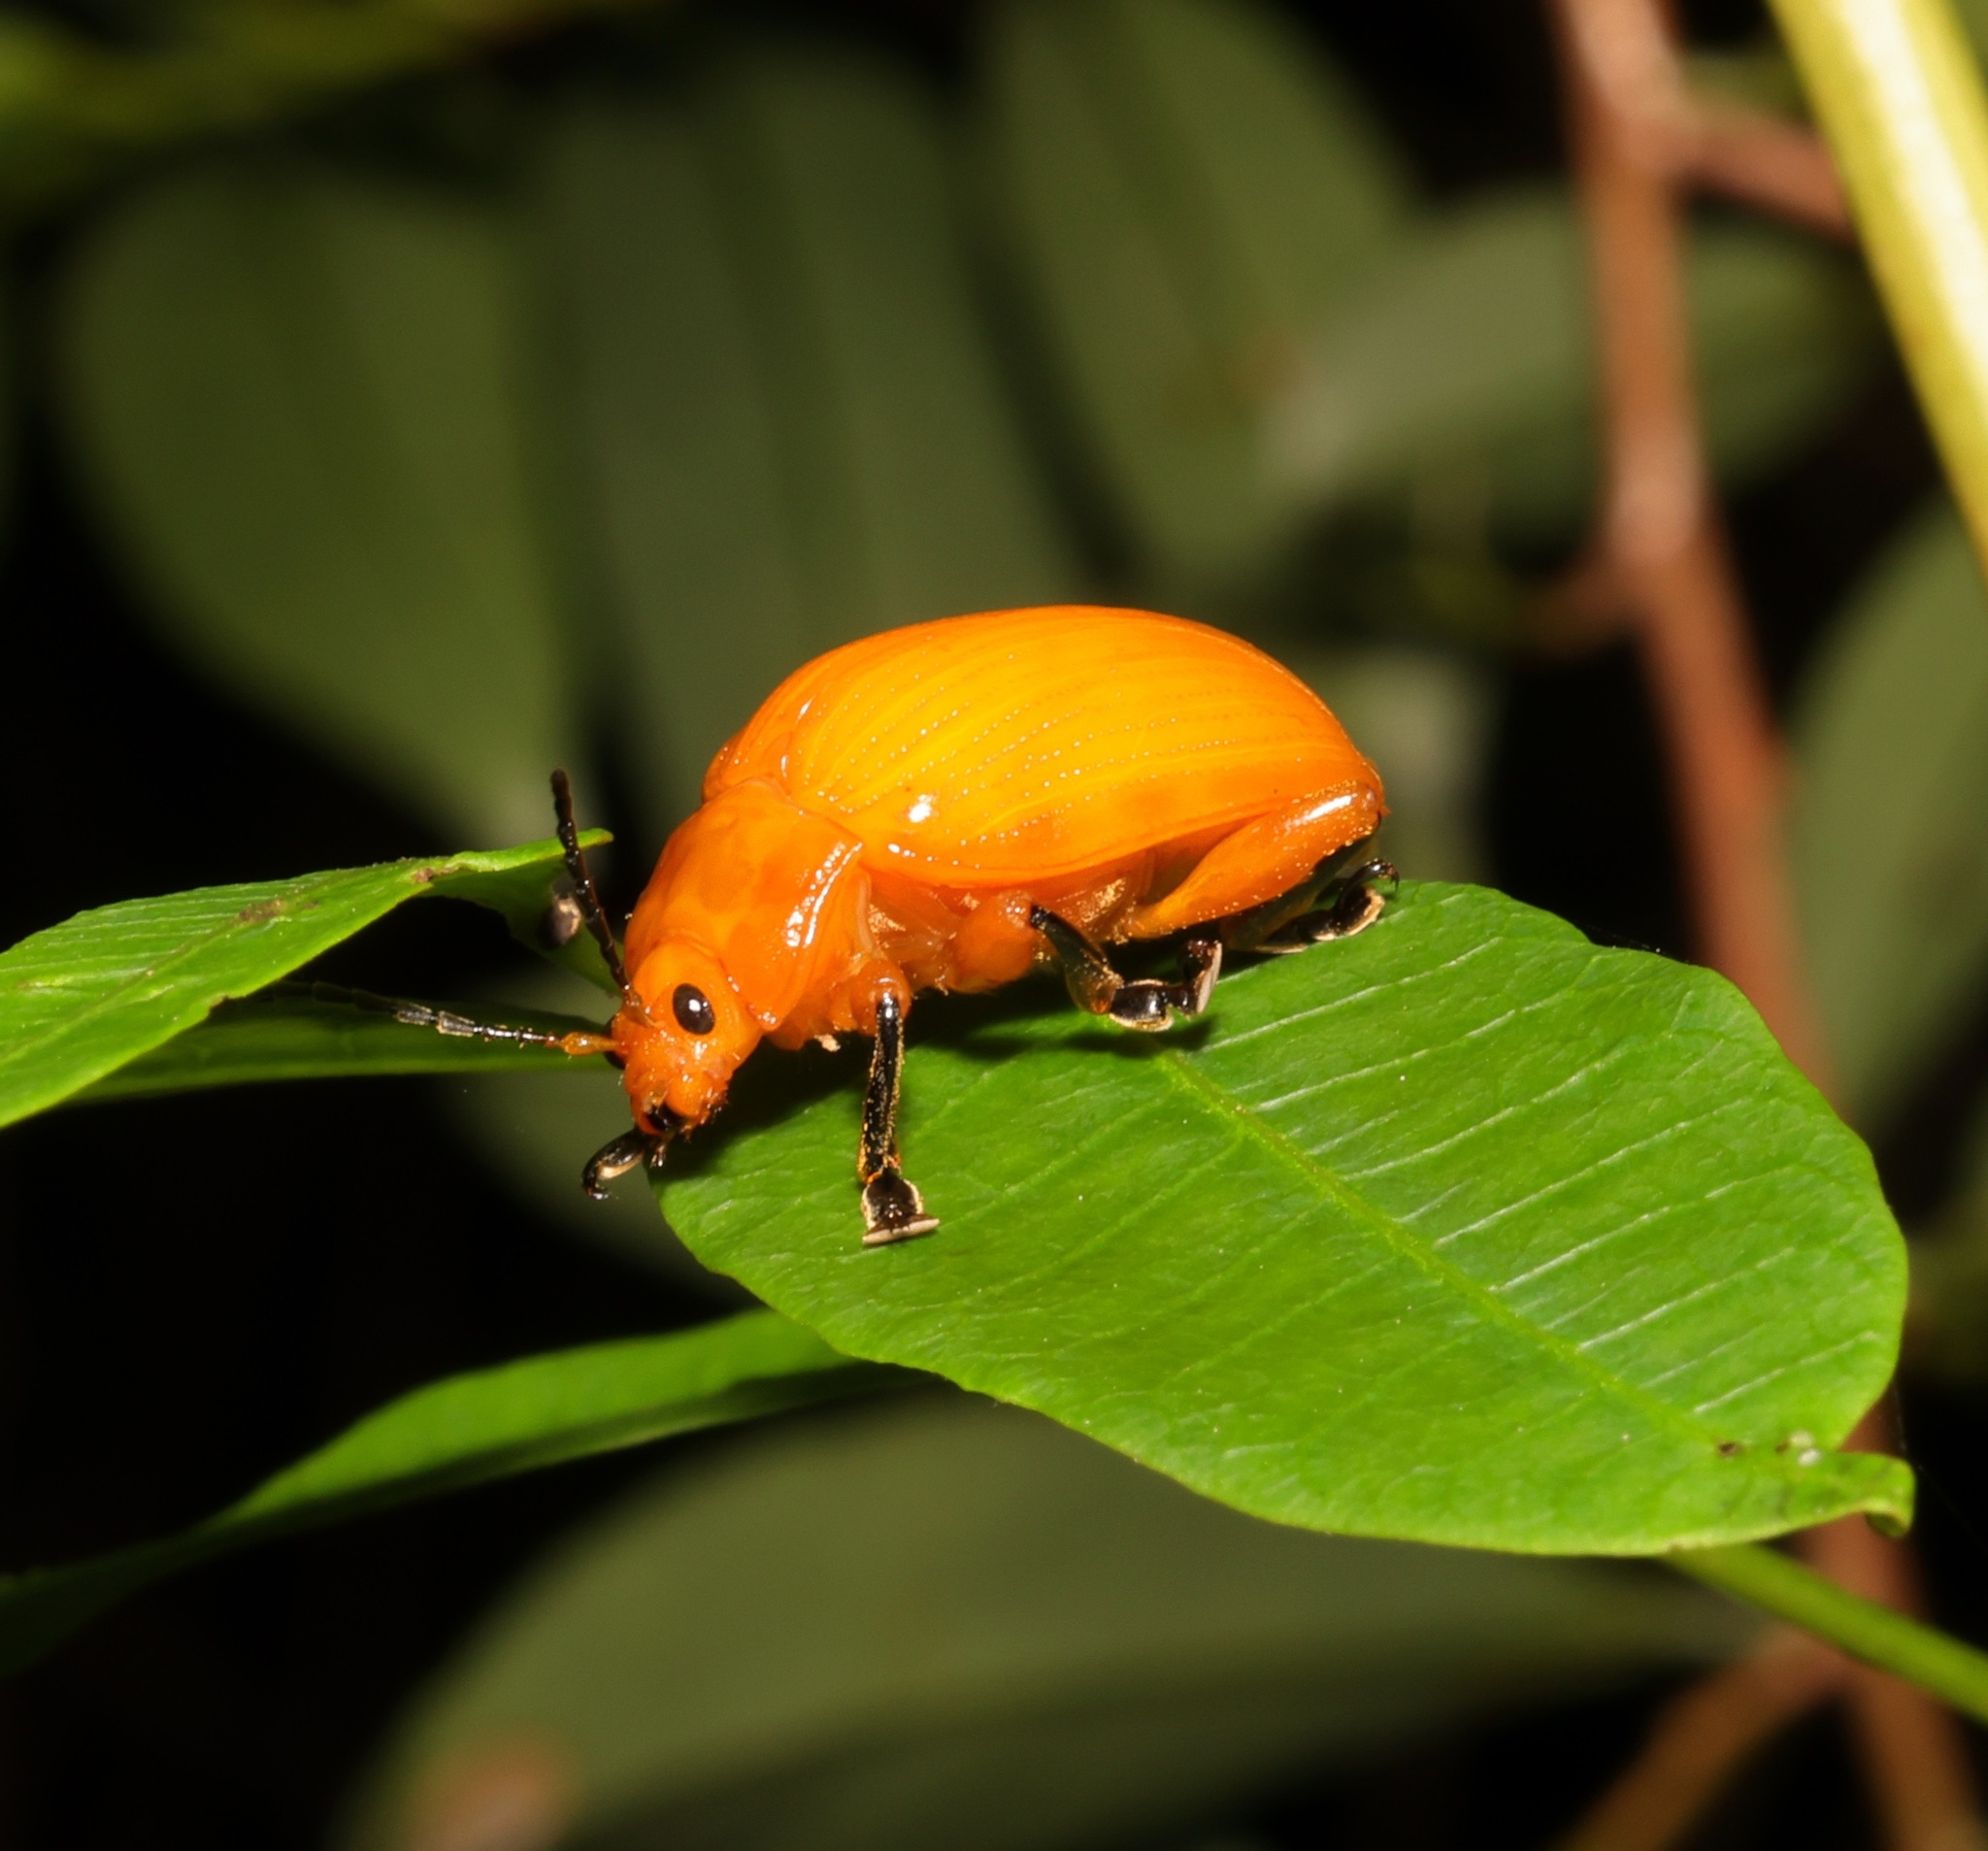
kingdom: Animalia
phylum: Arthropoda
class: Insecta
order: Coleoptera
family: Chrysomelidae
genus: Podontia
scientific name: Podontia lutea
